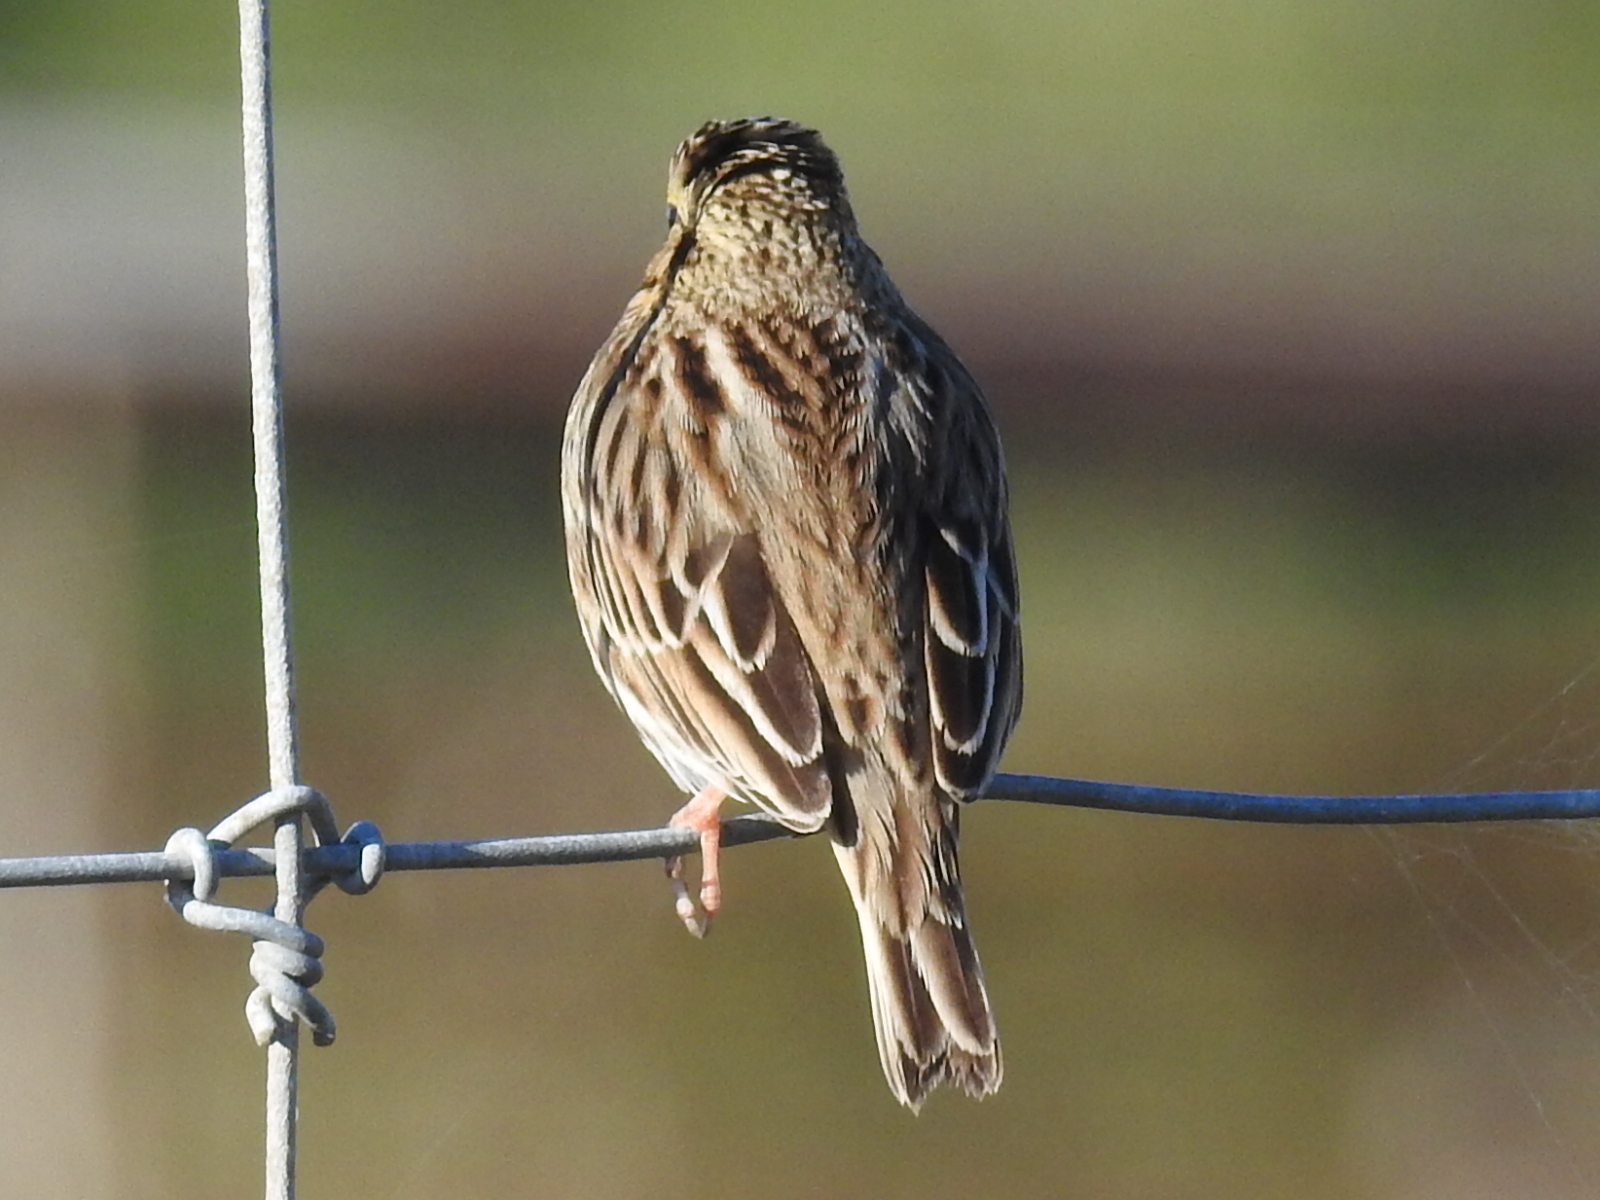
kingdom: Animalia
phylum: Chordata
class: Aves
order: Passeriformes
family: Passerellidae
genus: Passerculus
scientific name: Passerculus sandwichensis
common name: Savannah sparrow
